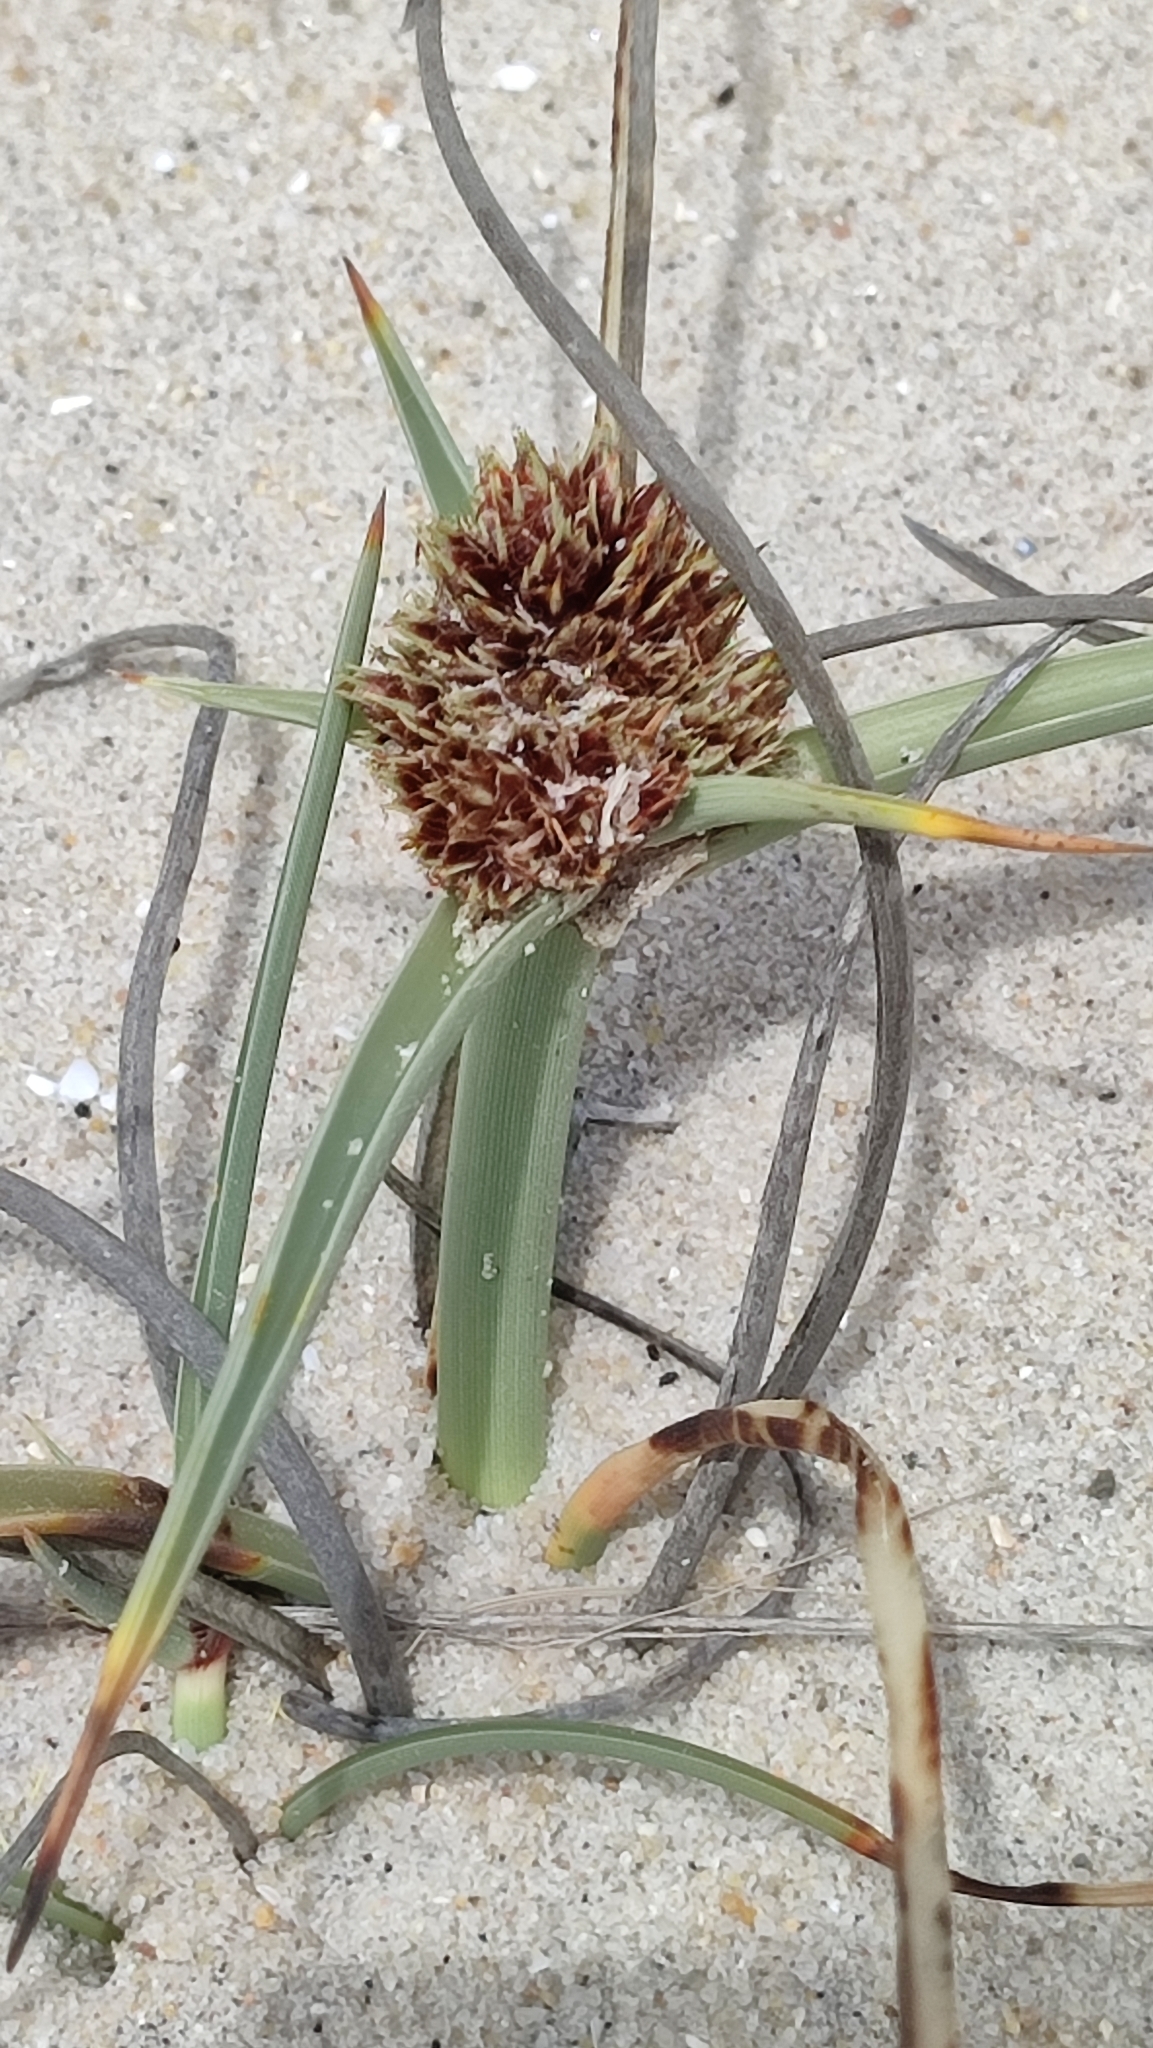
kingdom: Plantae
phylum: Tracheophyta
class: Liliopsida
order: Poales
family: Cyperaceae
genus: Cyperus
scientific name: Cyperus capitatus
